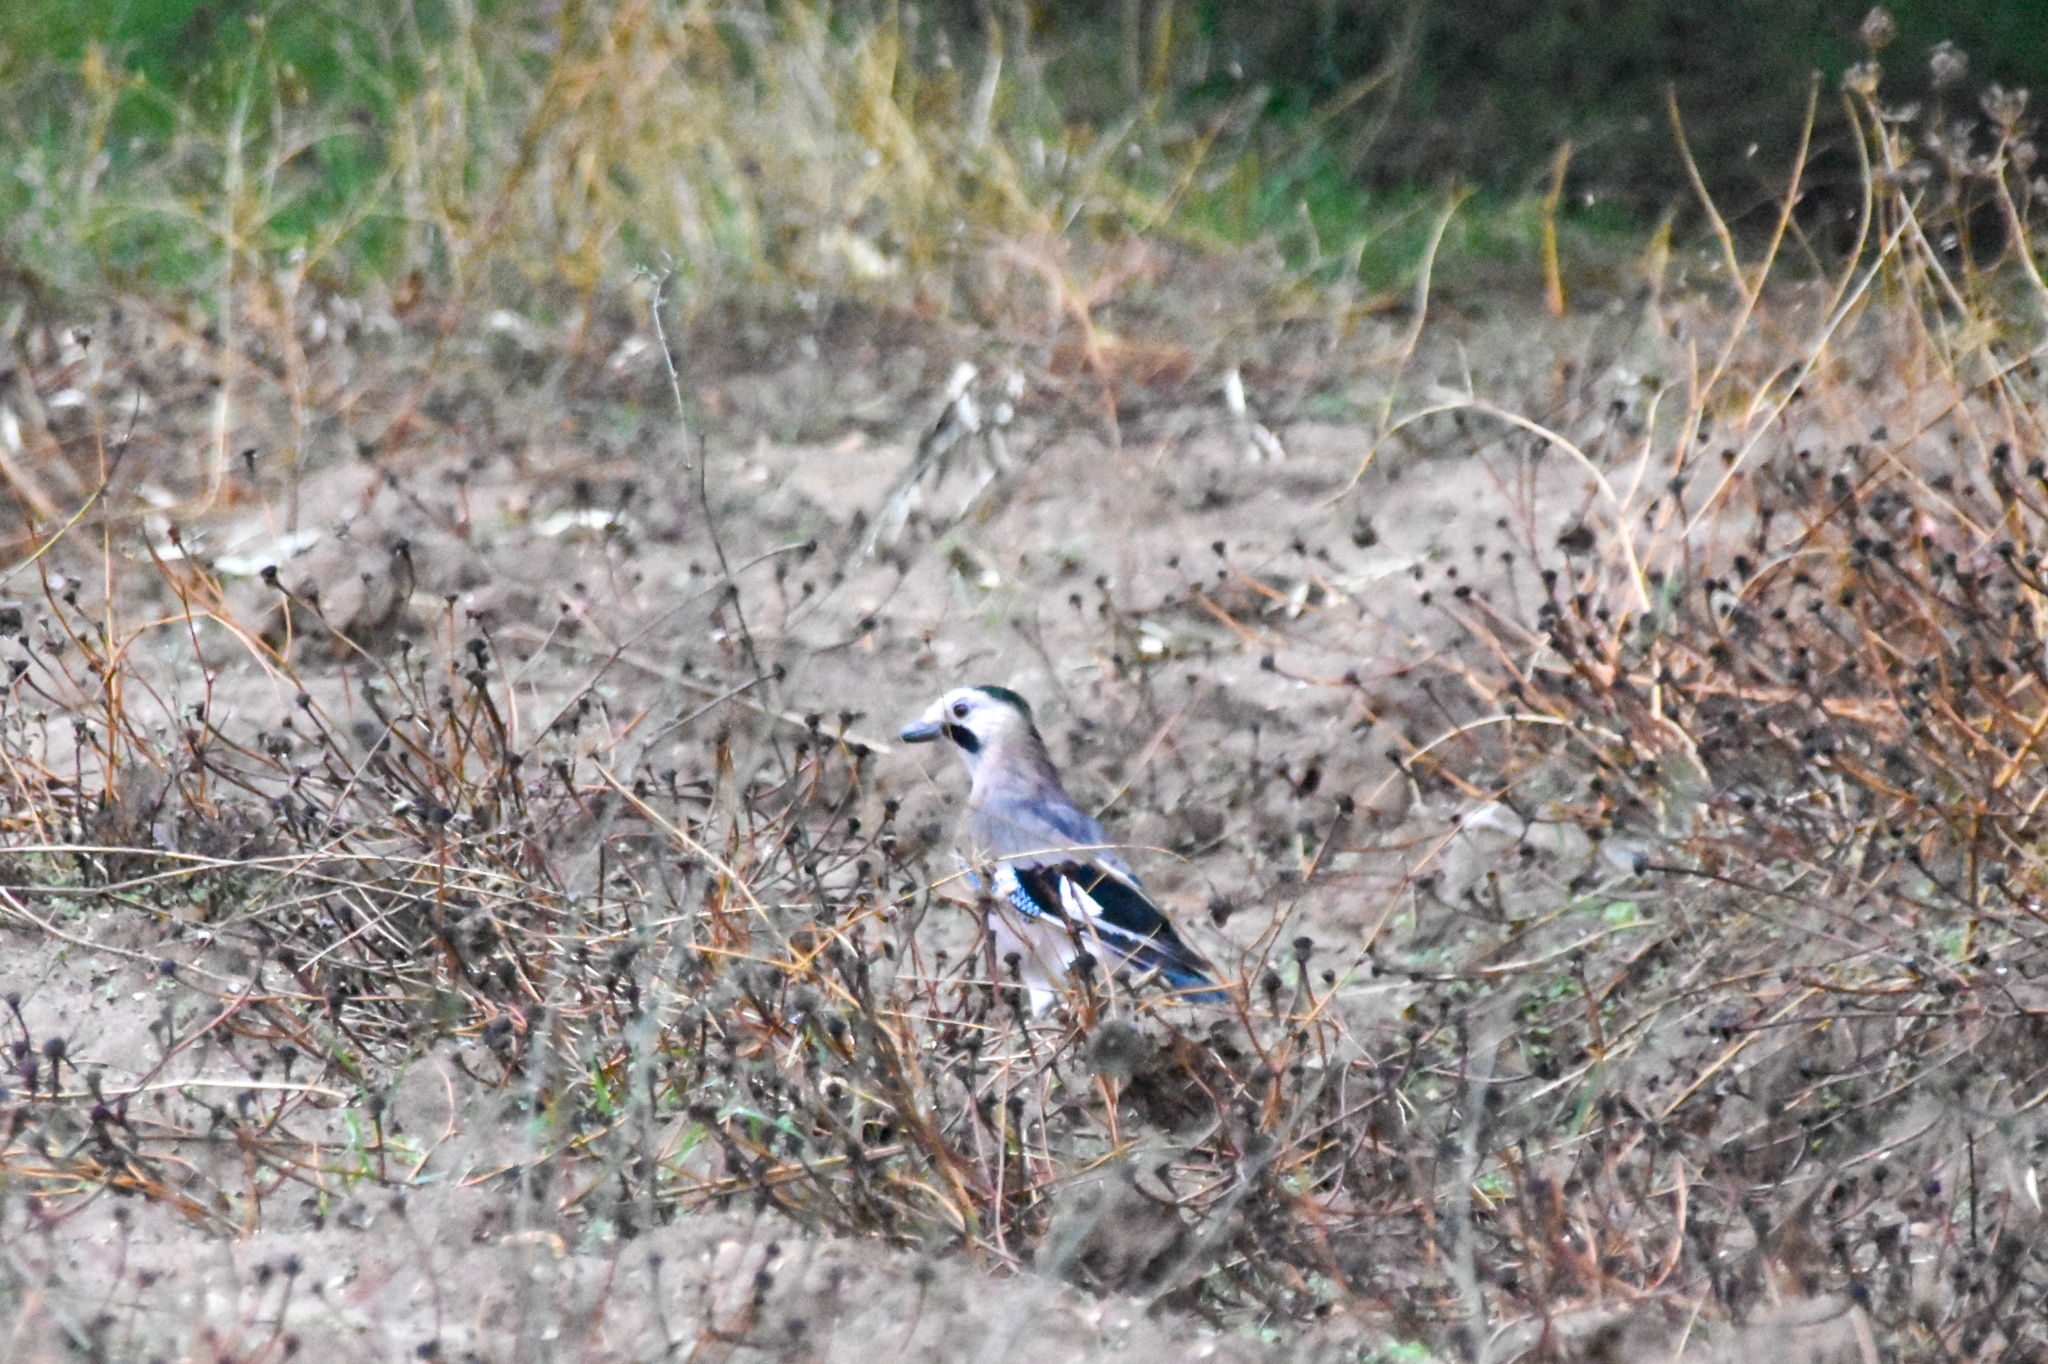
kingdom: Animalia
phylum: Chordata
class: Aves
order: Passeriformes
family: Corvidae
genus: Garrulus
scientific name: Garrulus glandarius
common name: Eurasian jay
